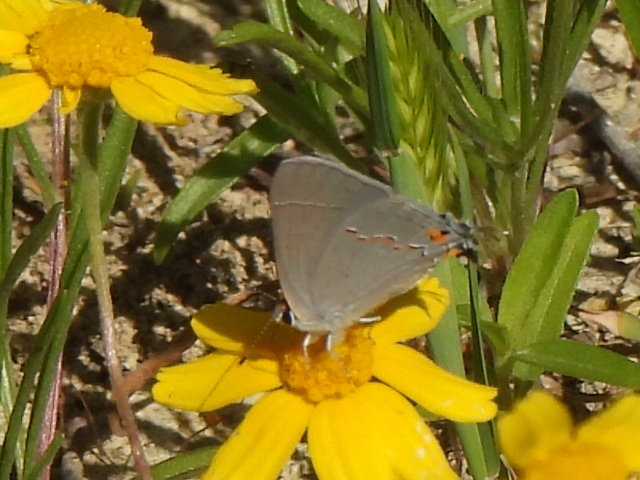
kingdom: Animalia
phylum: Arthropoda
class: Insecta
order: Lepidoptera
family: Lycaenidae
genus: Strymon
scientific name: Strymon melinus
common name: Gray hairstreak
